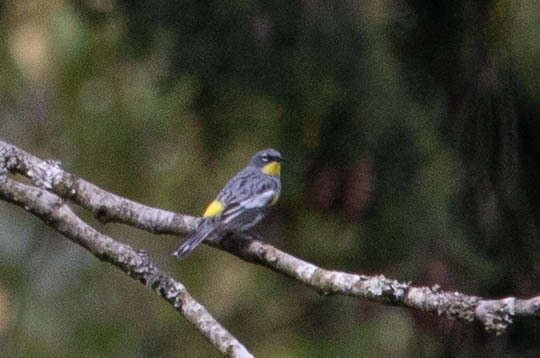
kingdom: Animalia
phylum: Chordata
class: Aves
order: Passeriformes
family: Parulidae
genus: Setophaga
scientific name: Setophaga auduboni
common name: Audubon's warbler
